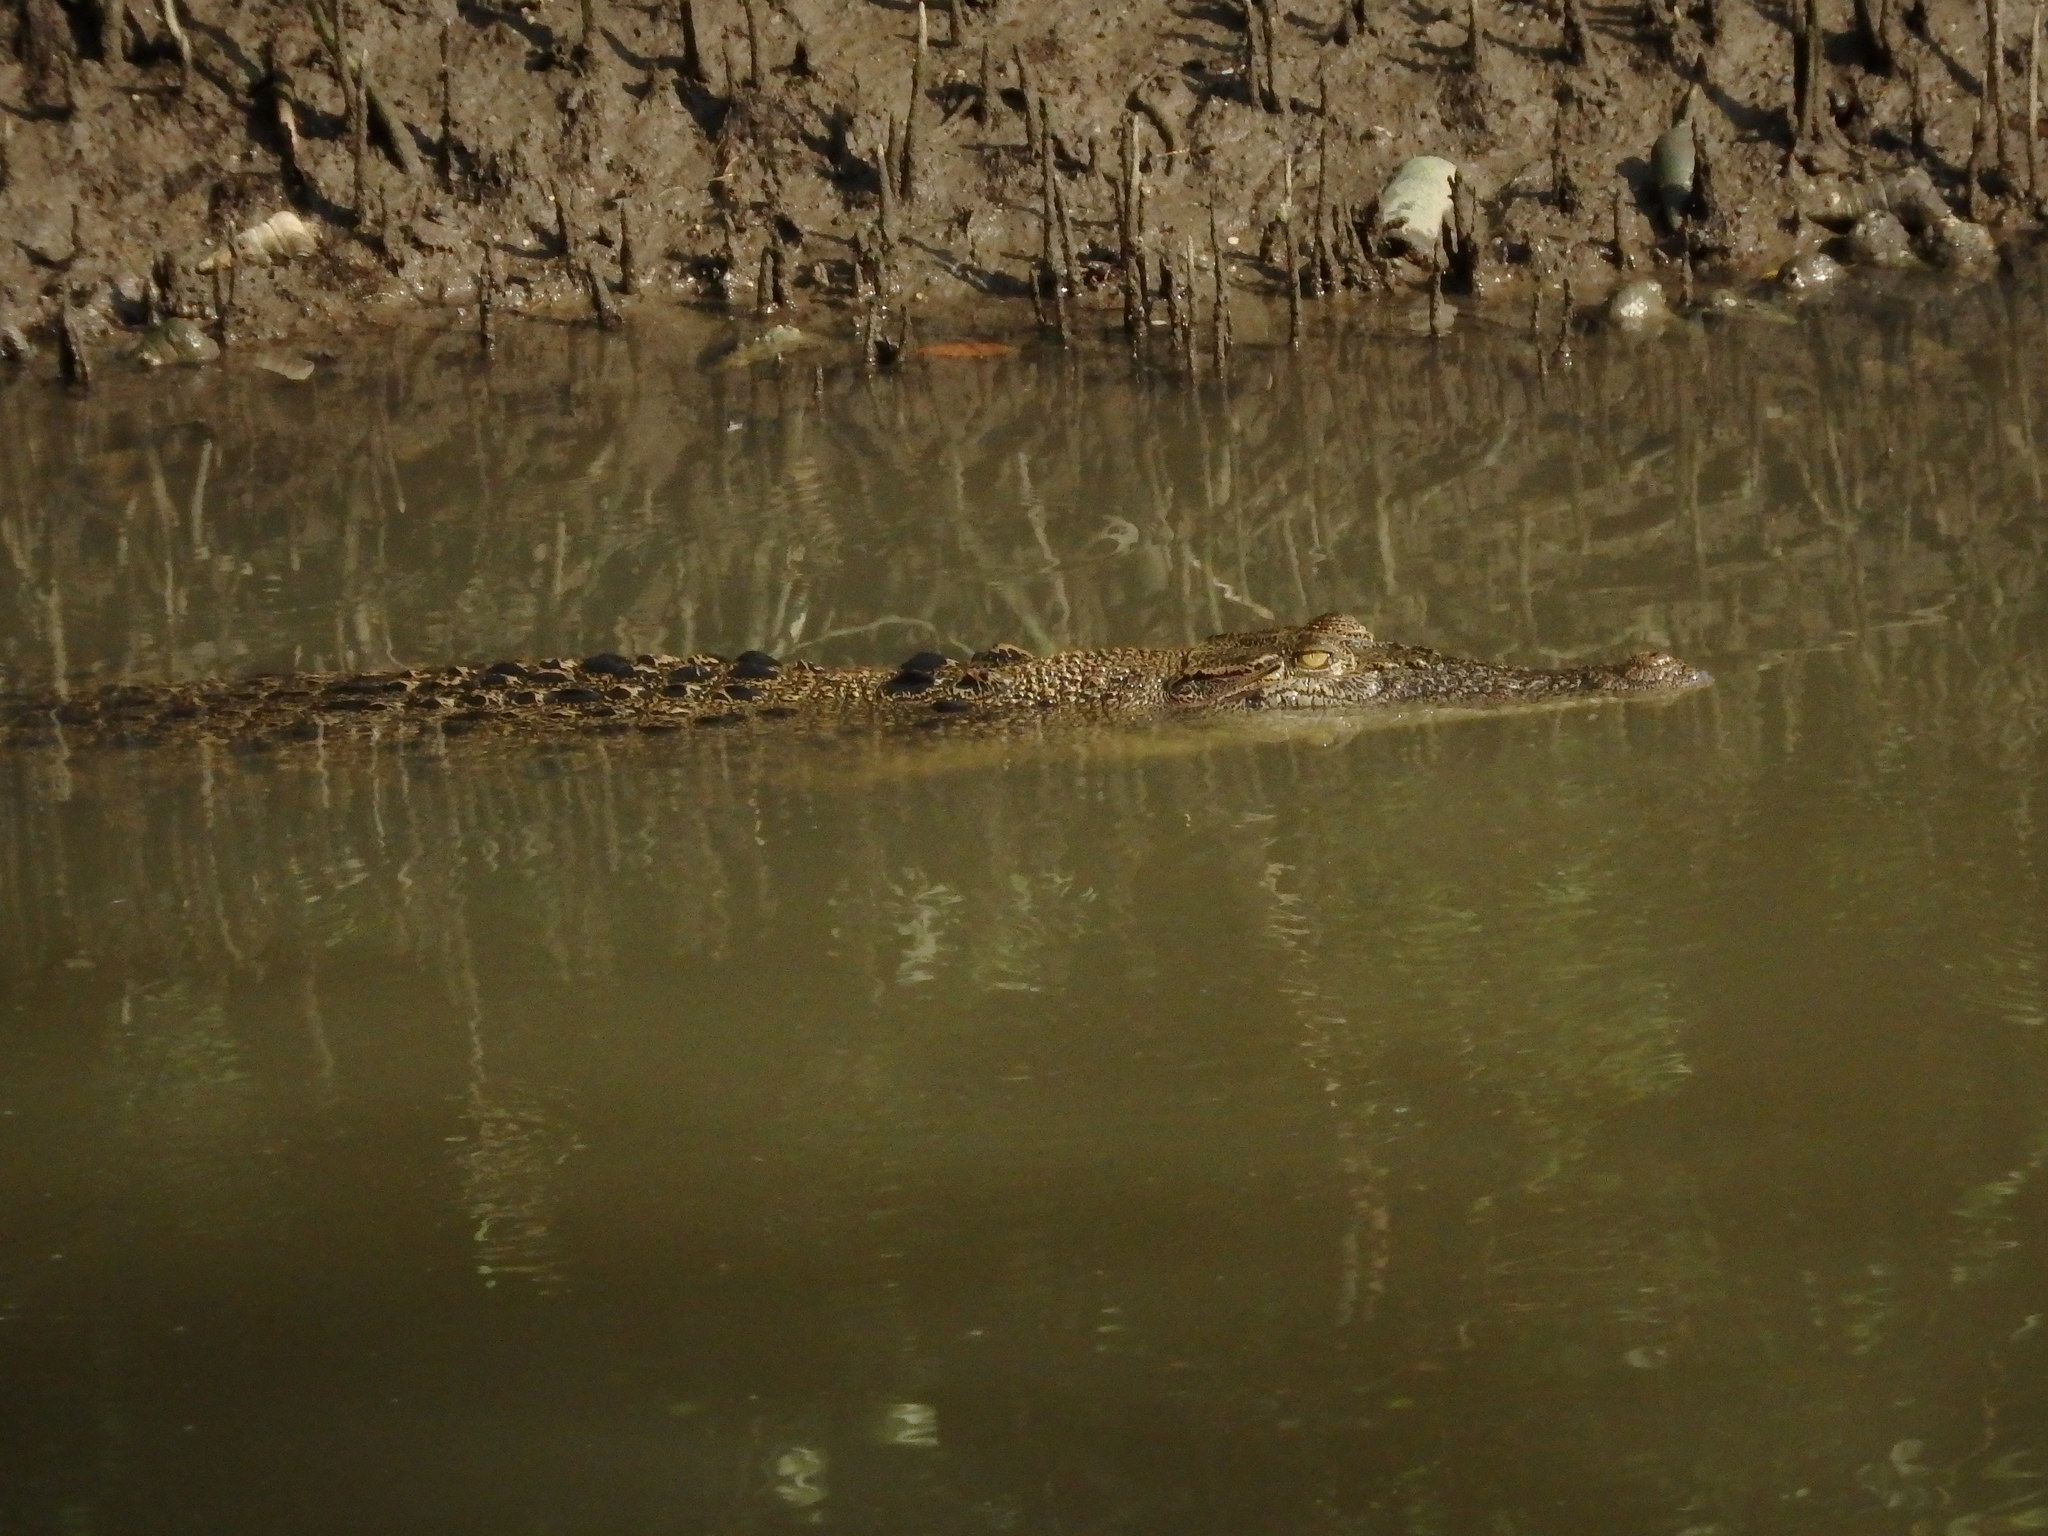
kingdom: Animalia
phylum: Chordata
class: Crocodylia
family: Crocodylidae
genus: Crocodylus
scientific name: Crocodylus porosus
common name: Saltwater crocodile
